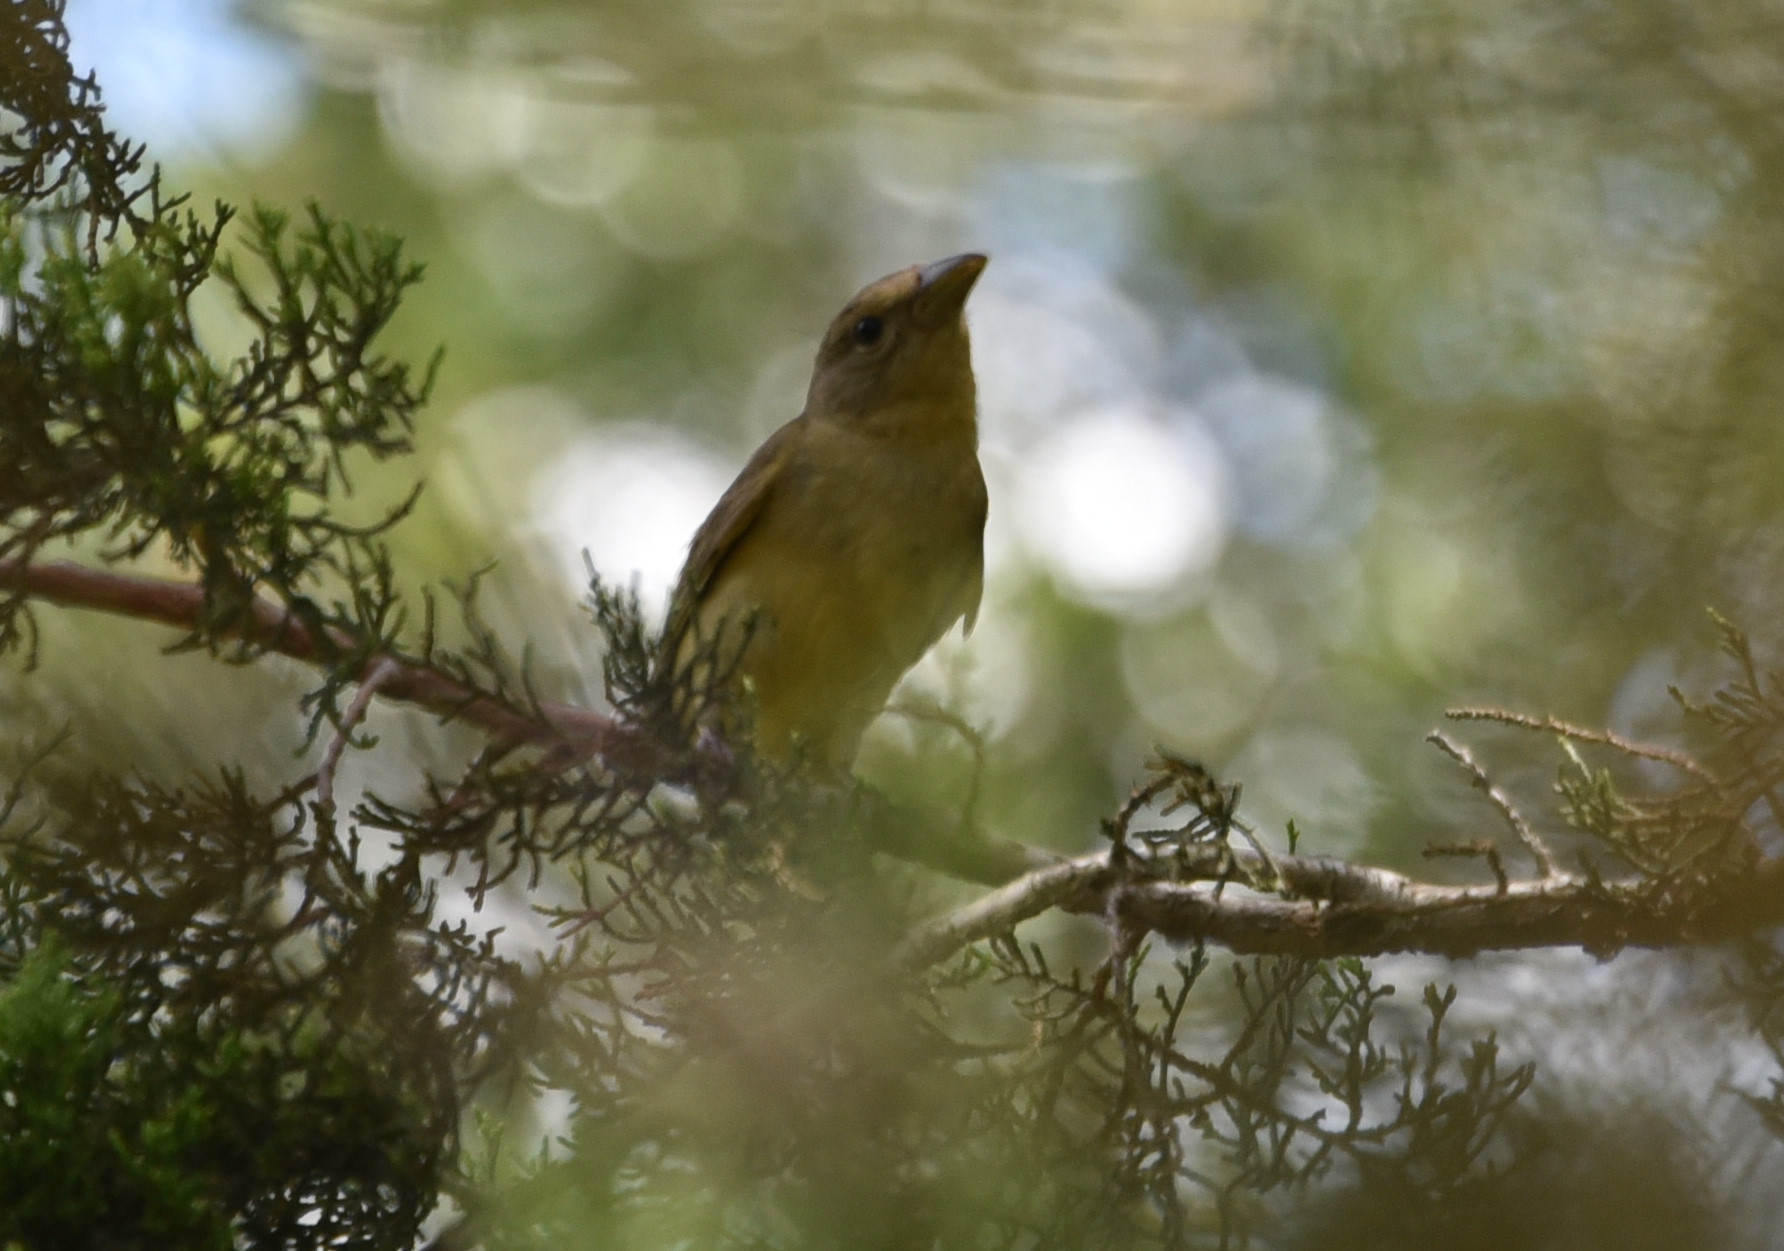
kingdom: Animalia
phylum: Chordata
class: Aves
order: Passeriformes
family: Cardinalidae
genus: Piranga
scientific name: Piranga rubra
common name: Summer tanager
